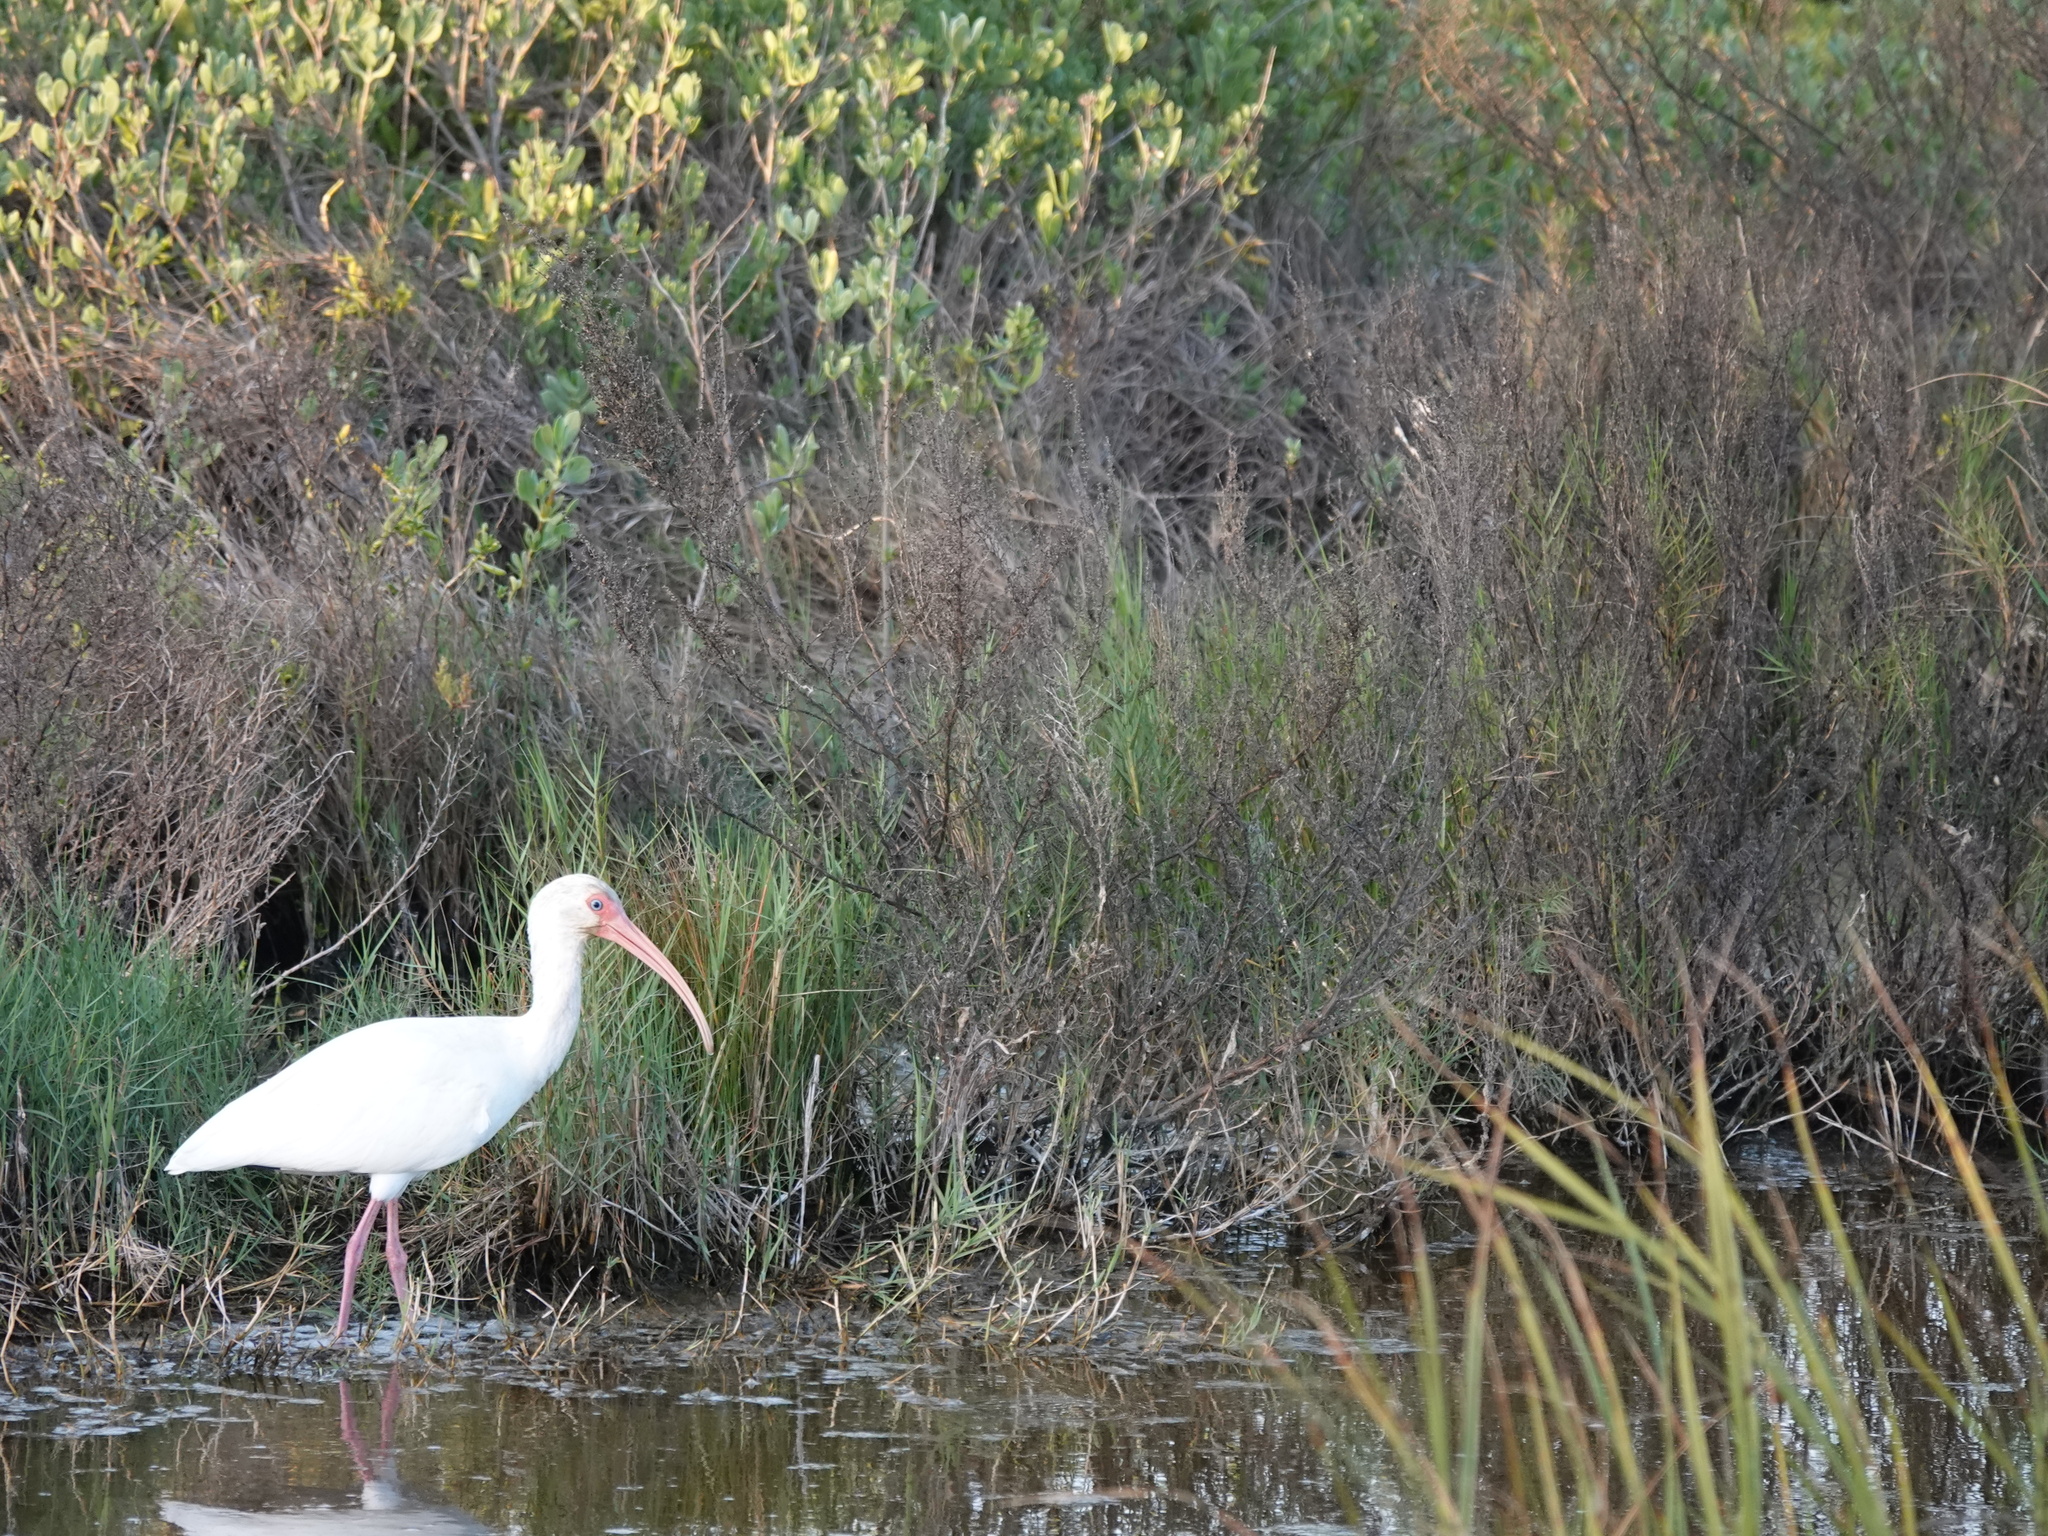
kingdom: Animalia
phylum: Chordata
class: Aves
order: Pelecaniformes
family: Threskiornithidae
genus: Eudocimus
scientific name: Eudocimus albus
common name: White ibis
